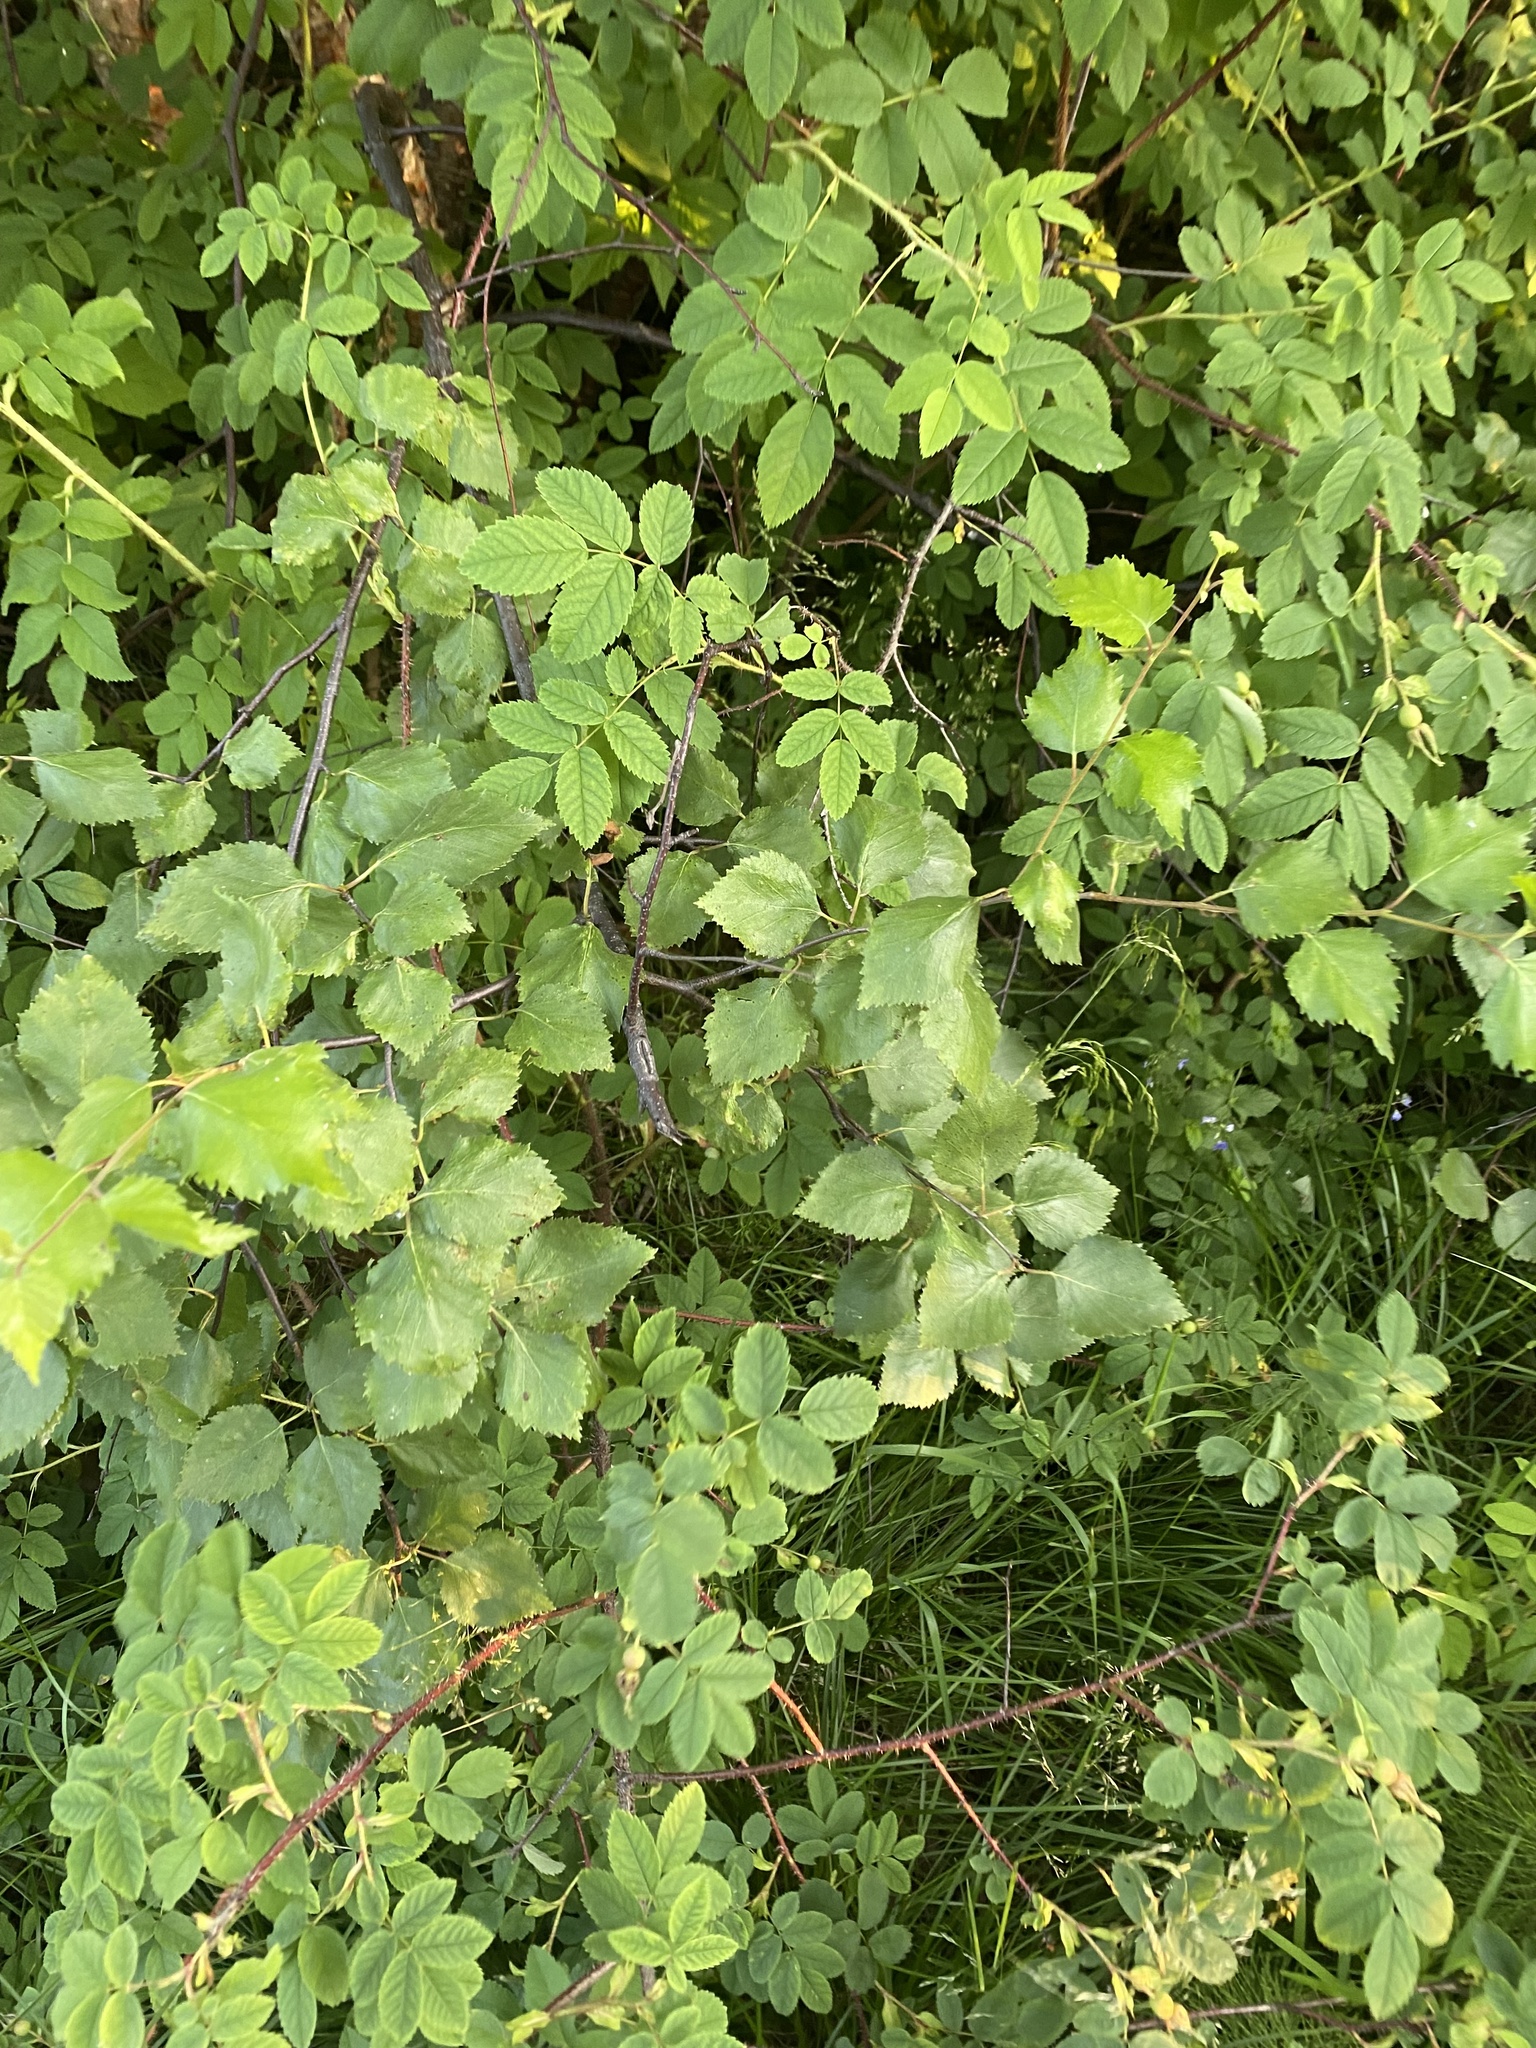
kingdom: Plantae
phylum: Tracheophyta
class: Magnoliopsida
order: Rosales
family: Rosaceae
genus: Rosa
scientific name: Rosa acicularis
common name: Prickly rose
